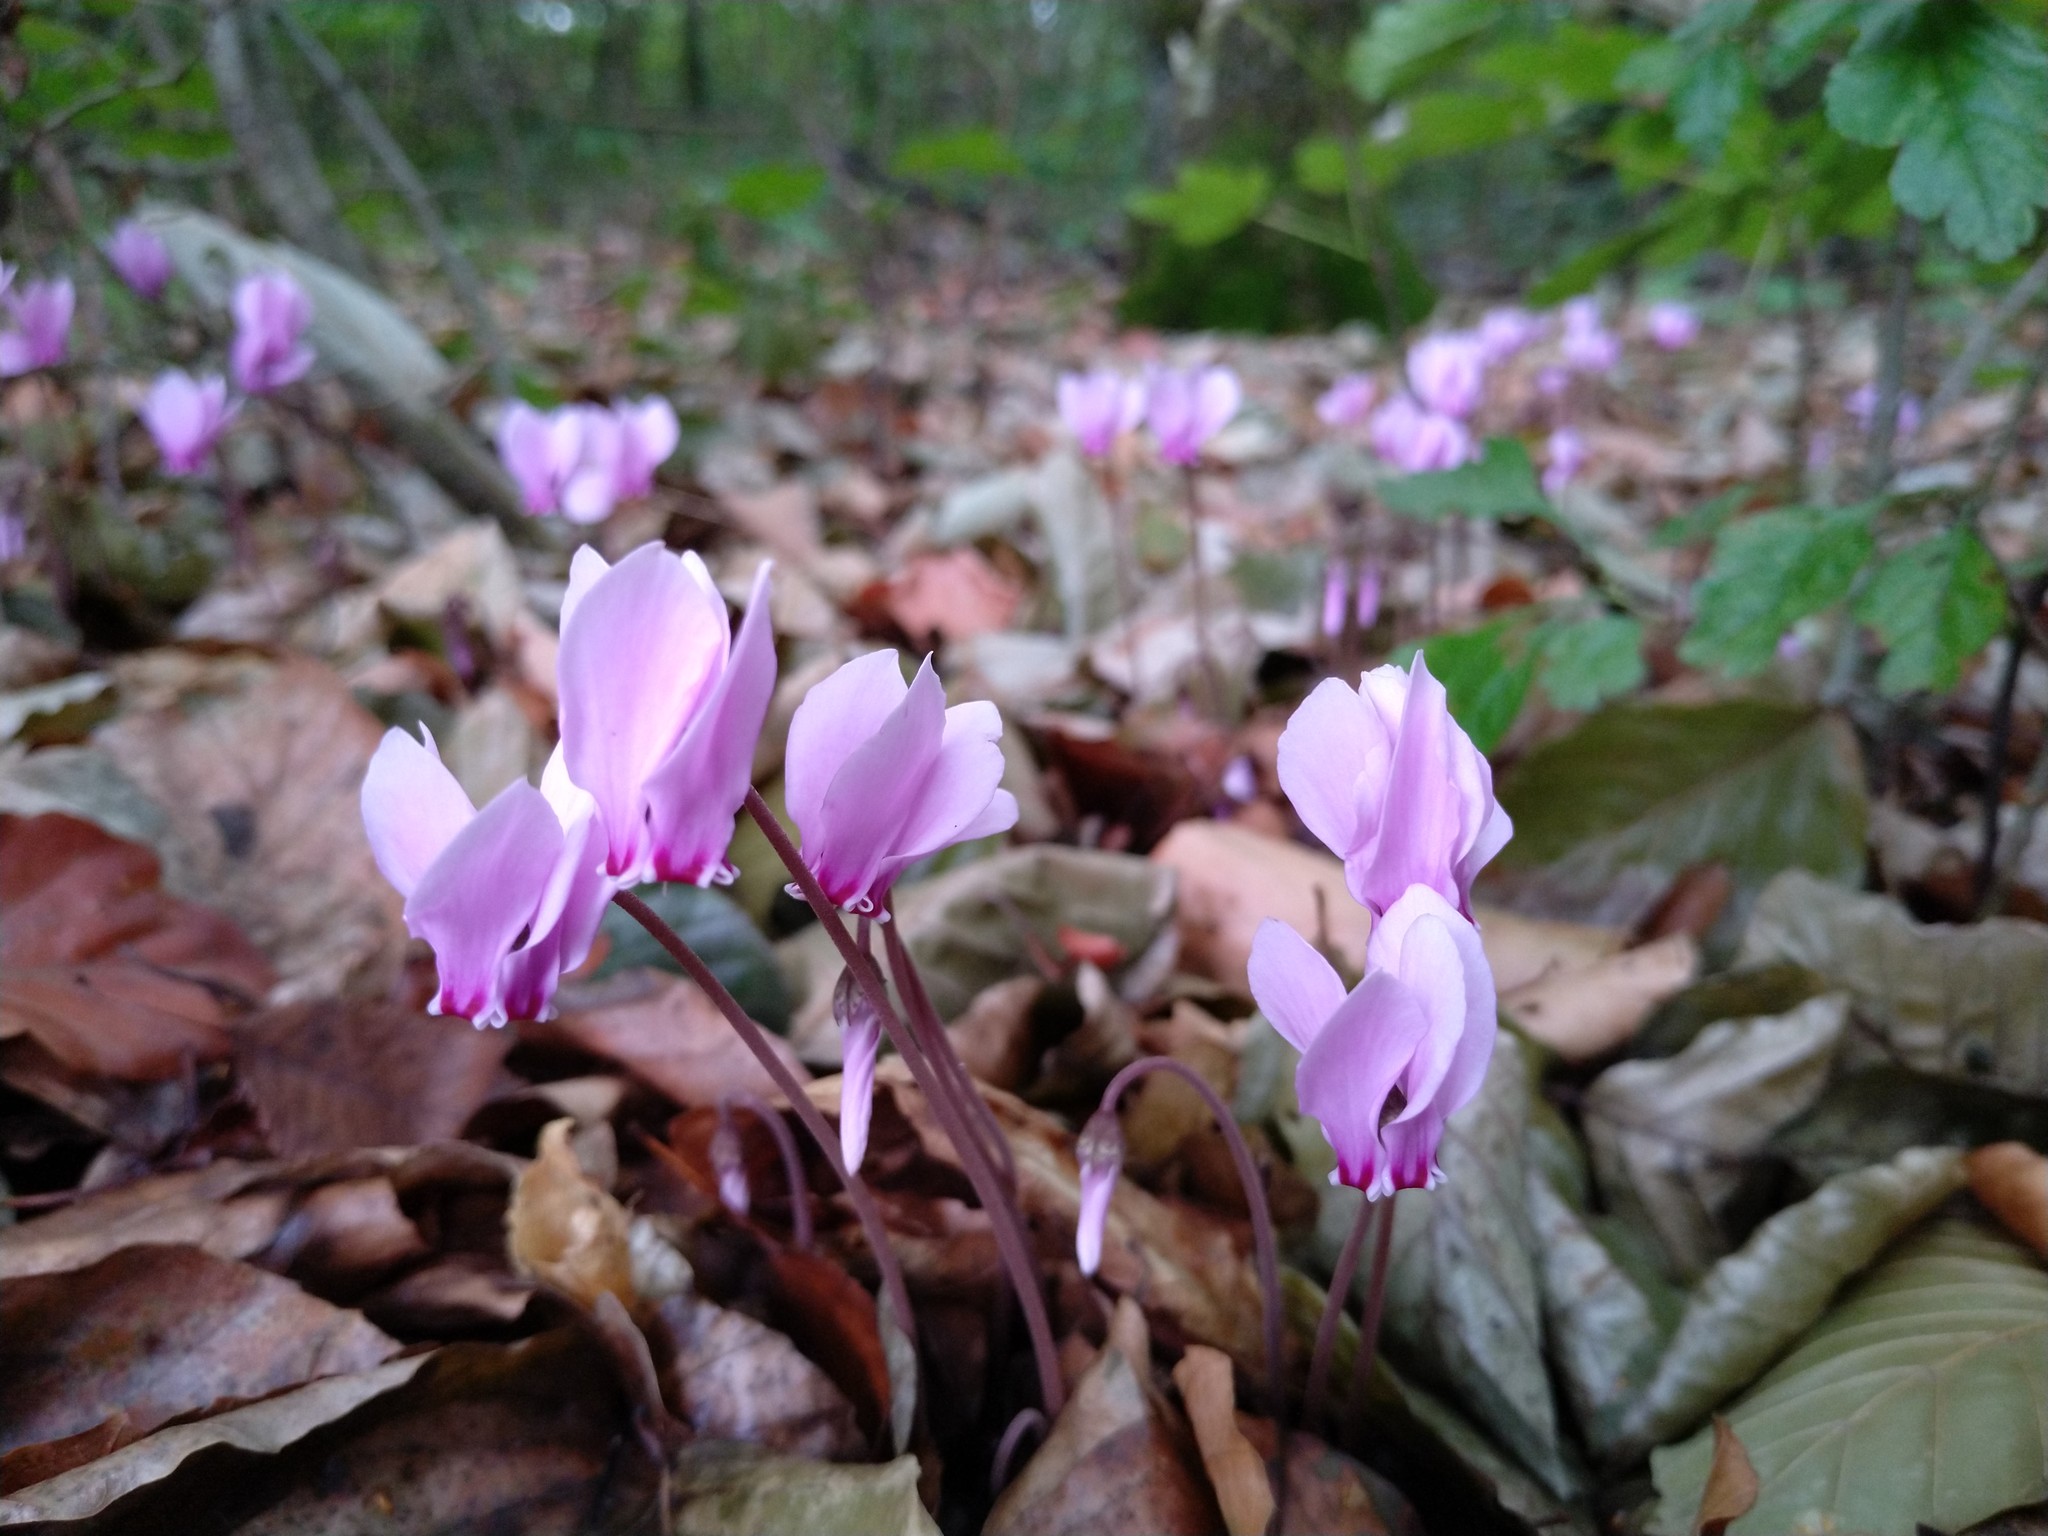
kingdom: Plantae
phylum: Tracheophyta
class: Magnoliopsida
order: Ericales
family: Primulaceae
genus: Cyclamen
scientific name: Cyclamen hederifolium
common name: Sowbread
